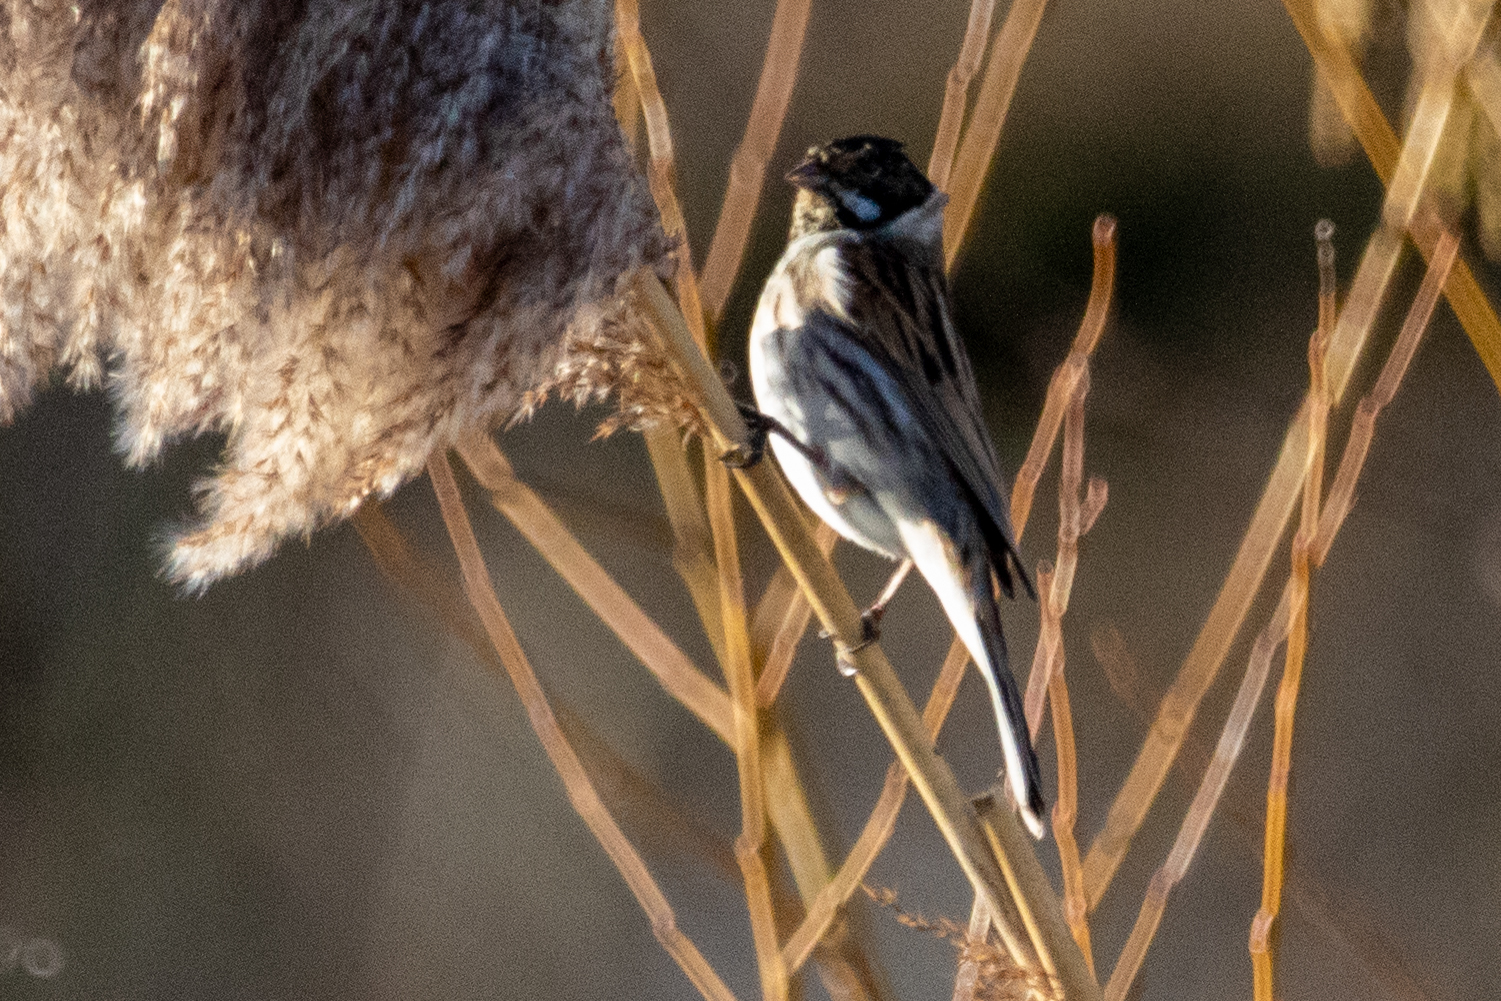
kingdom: Animalia
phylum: Chordata
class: Aves
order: Passeriformes
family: Emberizidae
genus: Emberiza
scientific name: Emberiza schoeniclus
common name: Reed bunting
